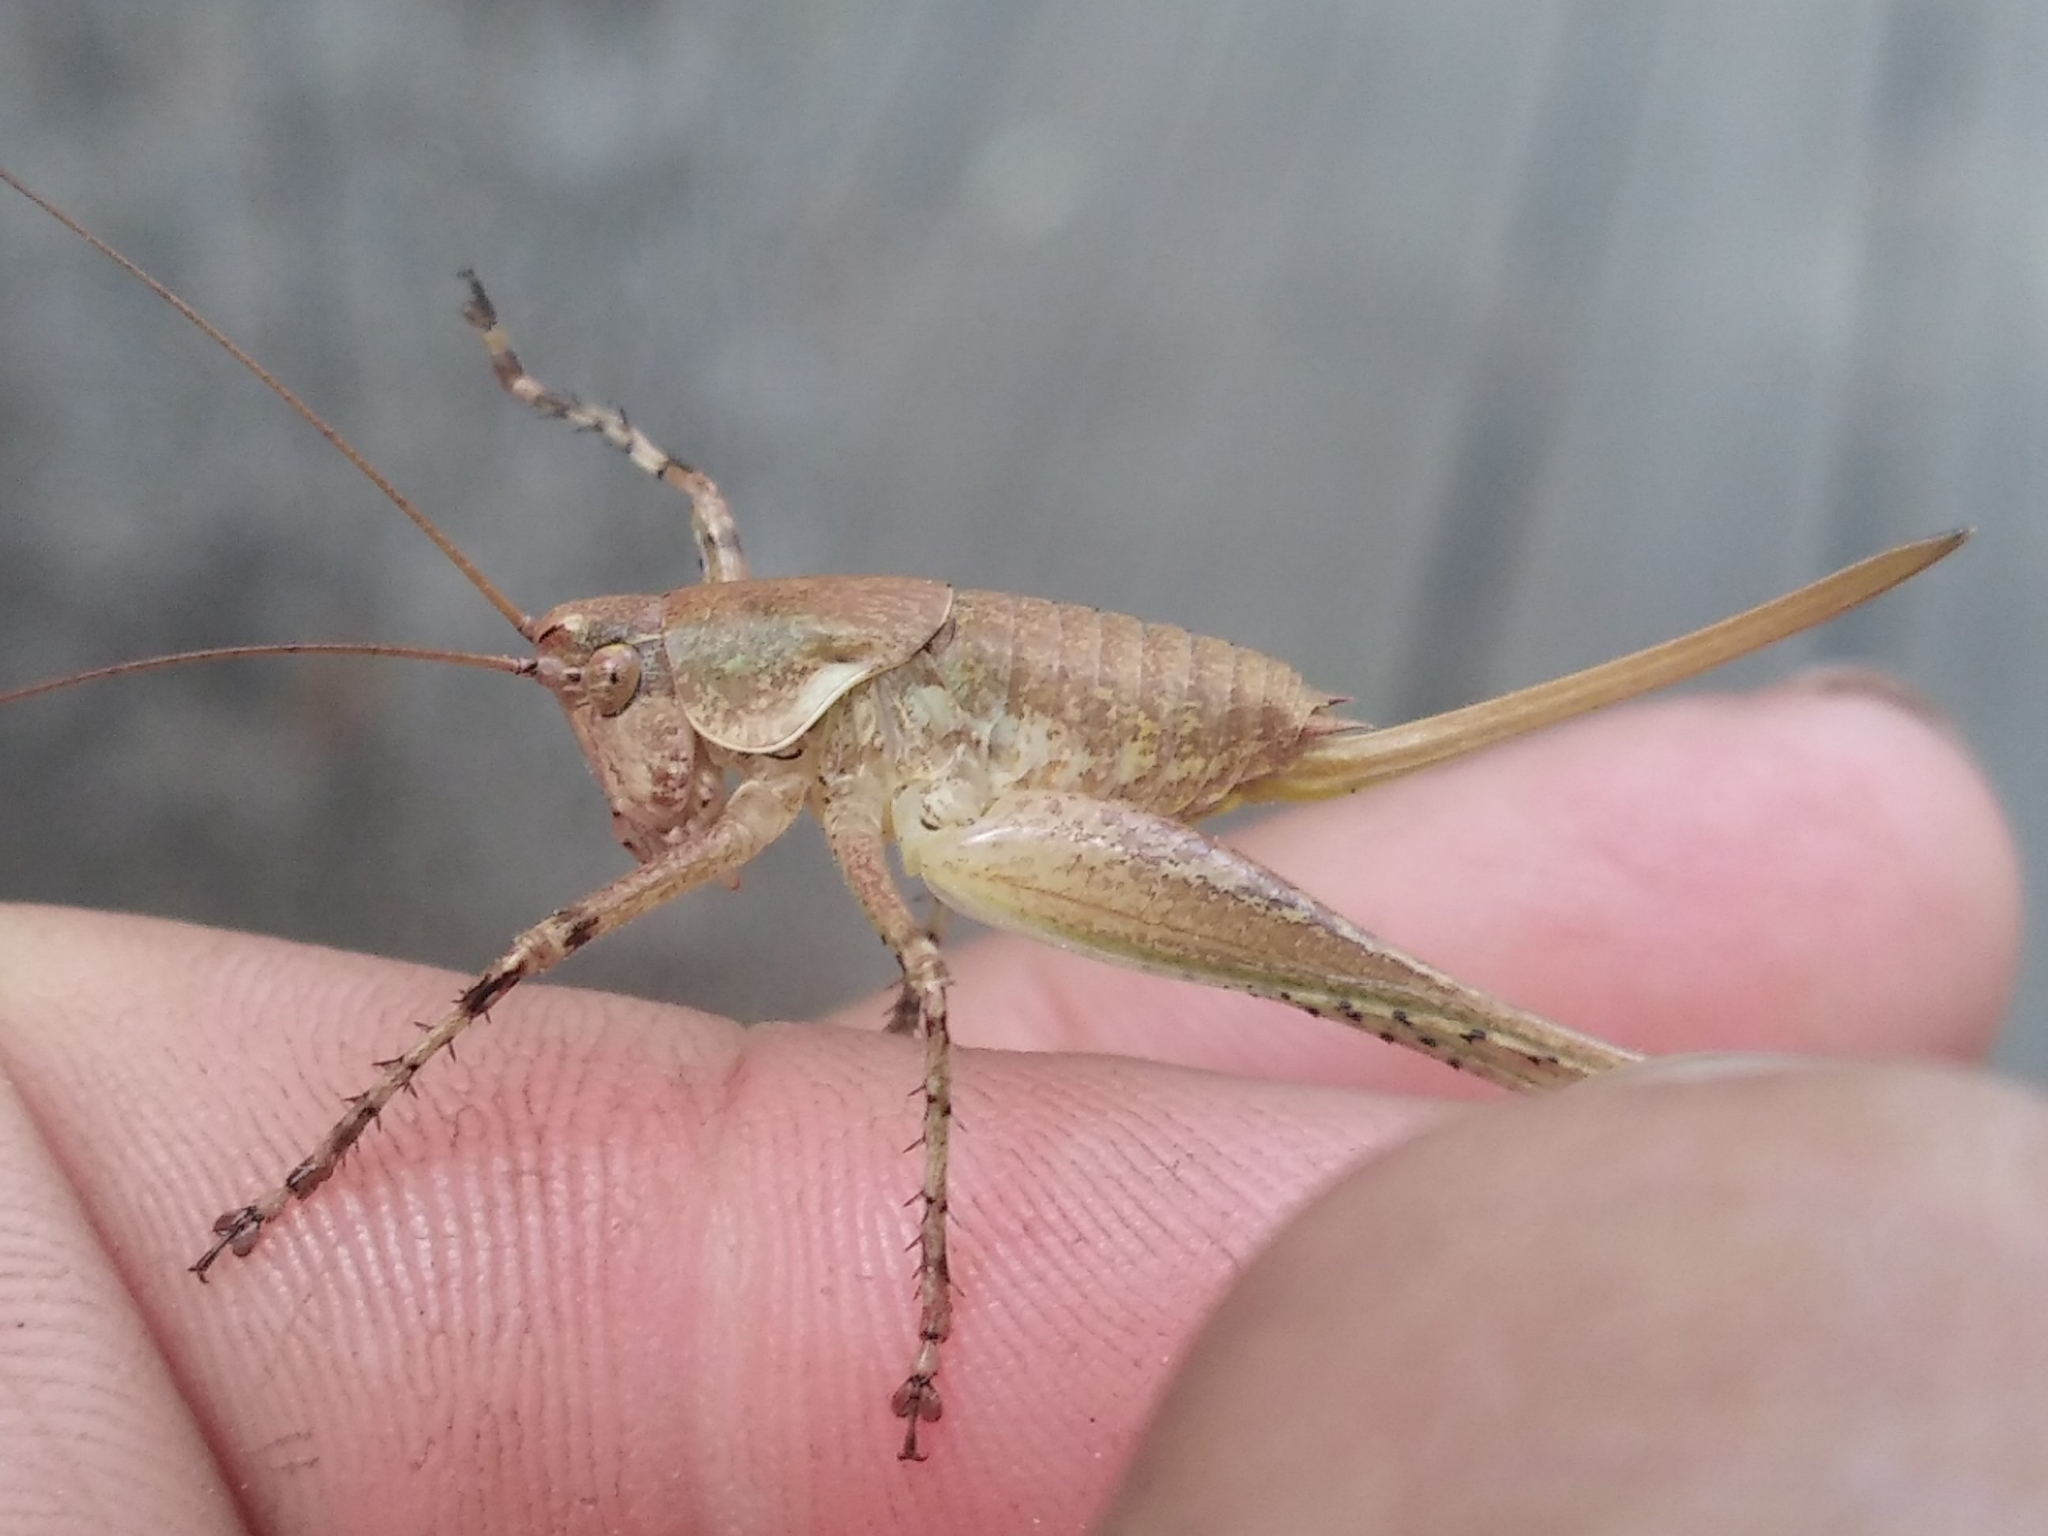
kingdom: Animalia
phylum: Arthropoda
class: Insecta
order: Orthoptera
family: Tettigoniidae
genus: Rhacocleis
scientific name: Rhacocleis annulata
